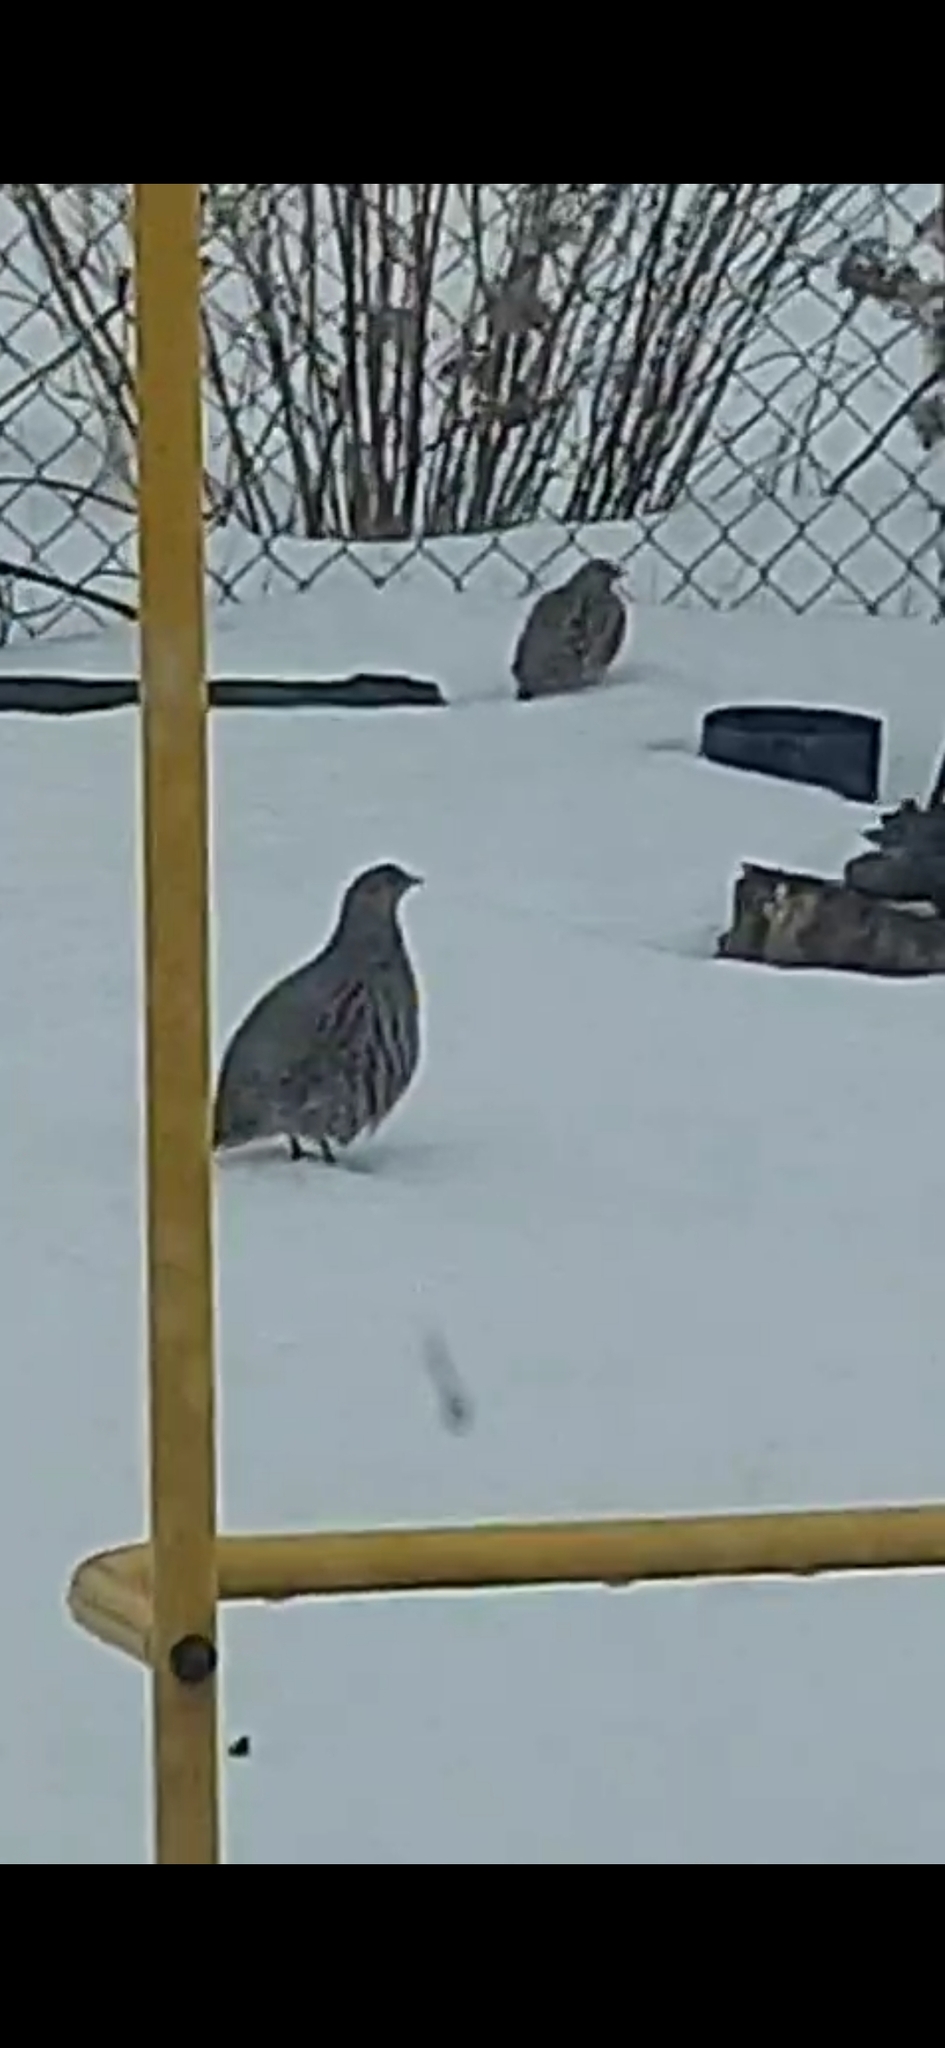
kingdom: Animalia
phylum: Chordata
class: Aves
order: Galliformes
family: Phasianidae
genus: Perdix
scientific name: Perdix perdix
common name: Grey partridge
